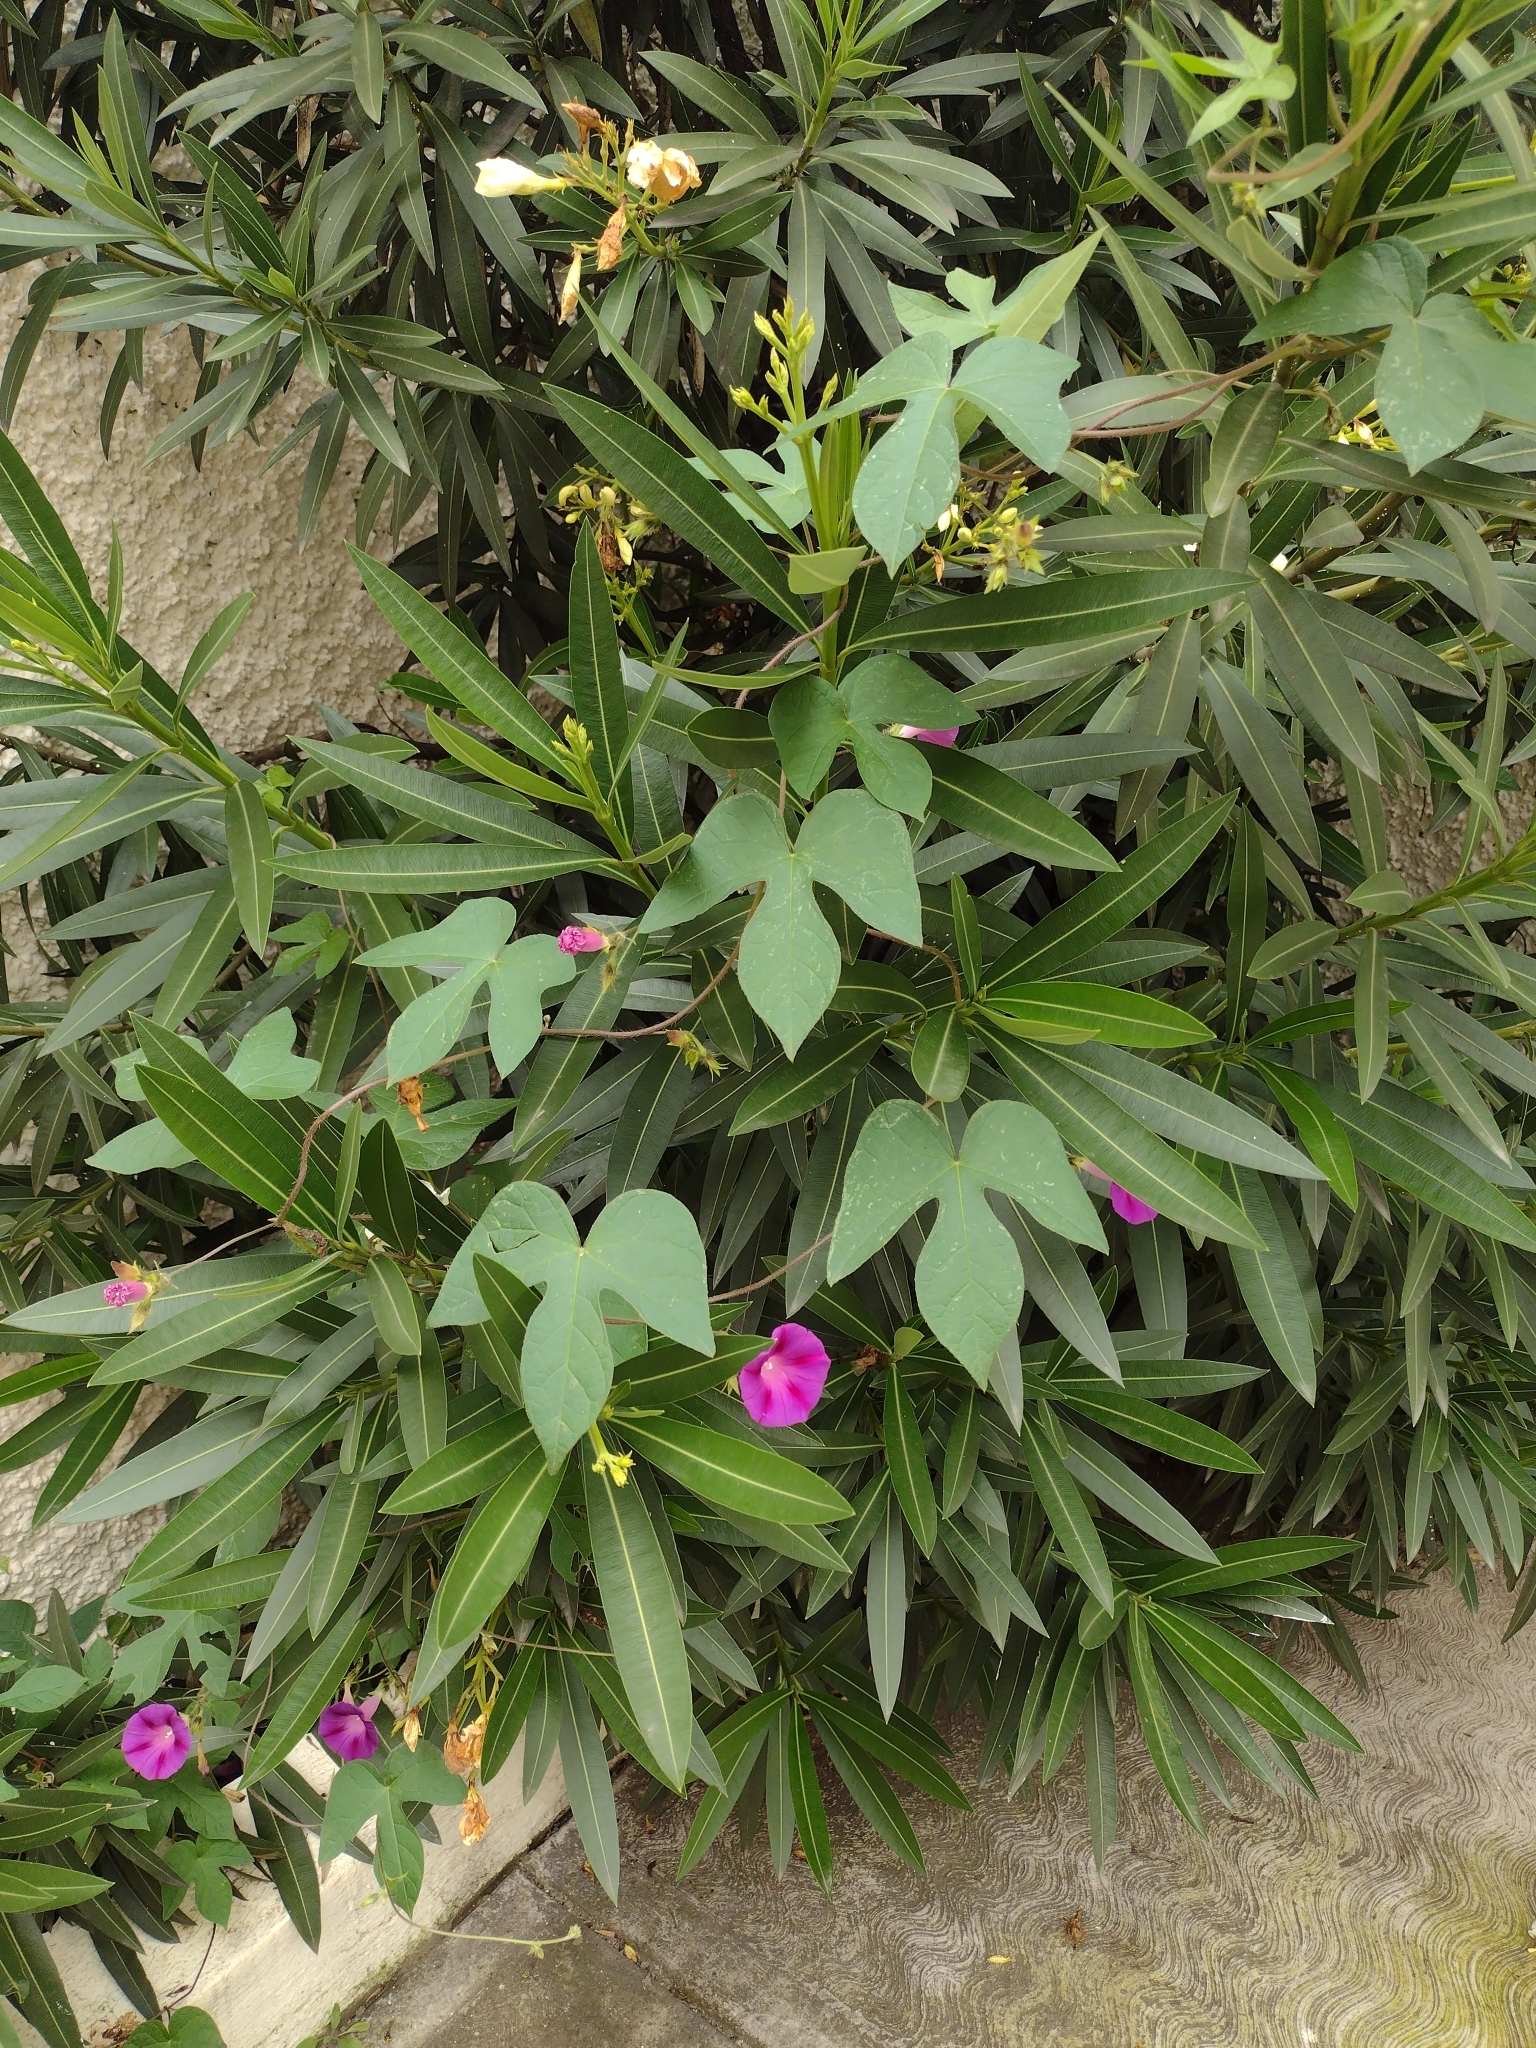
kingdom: Plantae
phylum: Tracheophyta
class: Magnoliopsida
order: Solanales
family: Convolvulaceae
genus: Ipomoea
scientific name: Ipomoea purpurea
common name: Common morning-glory
